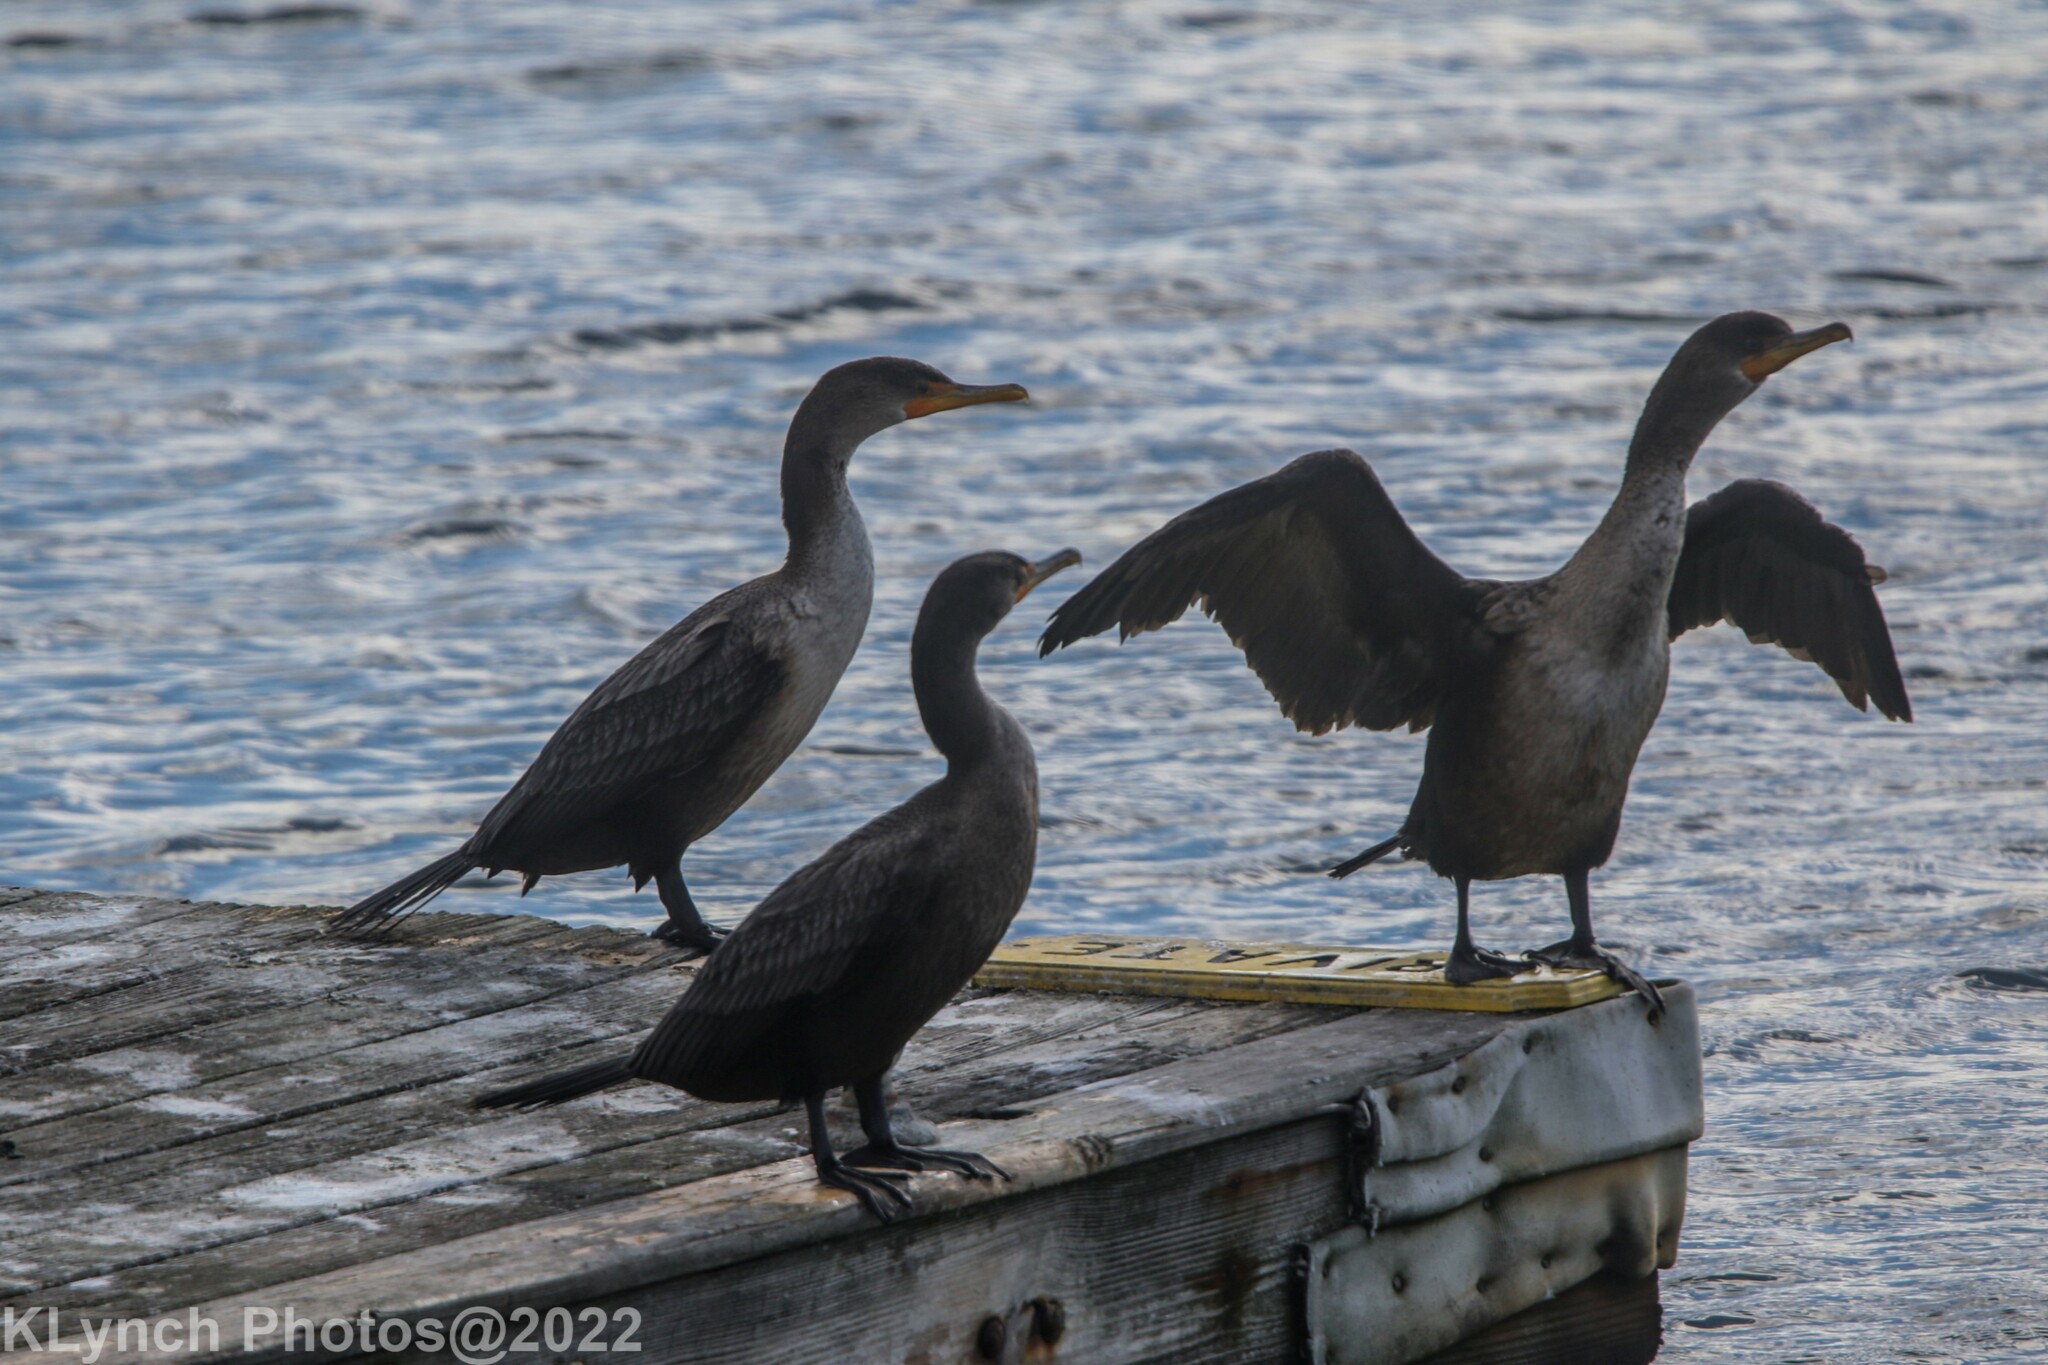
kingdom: Animalia
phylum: Chordata
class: Aves
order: Suliformes
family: Phalacrocoracidae
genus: Phalacrocorax
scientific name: Phalacrocorax auritus
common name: Double-crested cormorant
